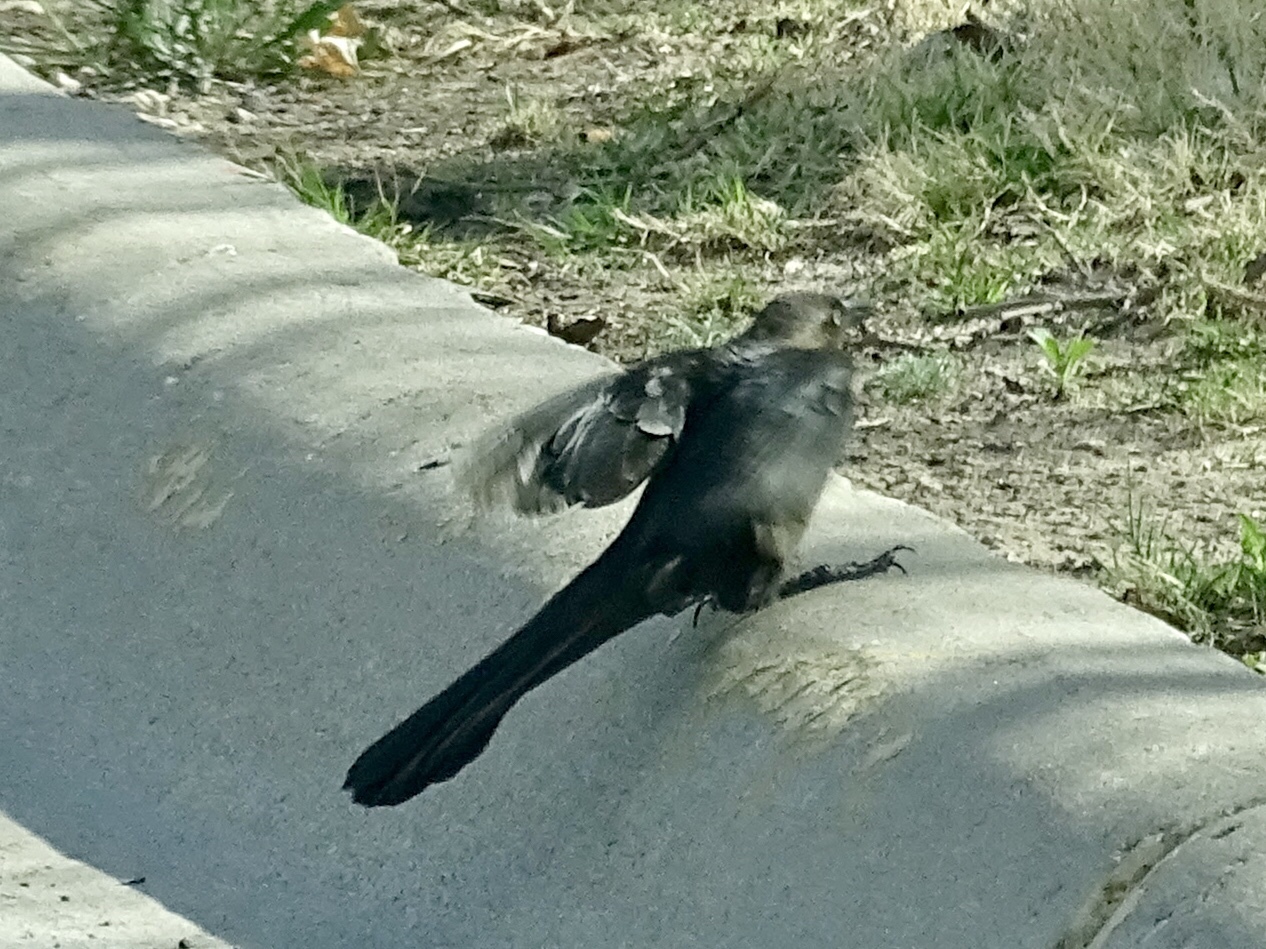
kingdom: Animalia
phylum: Chordata
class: Aves
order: Passeriformes
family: Icteridae
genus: Quiscalus
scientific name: Quiscalus mexicanus
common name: Great-tailed grackle
